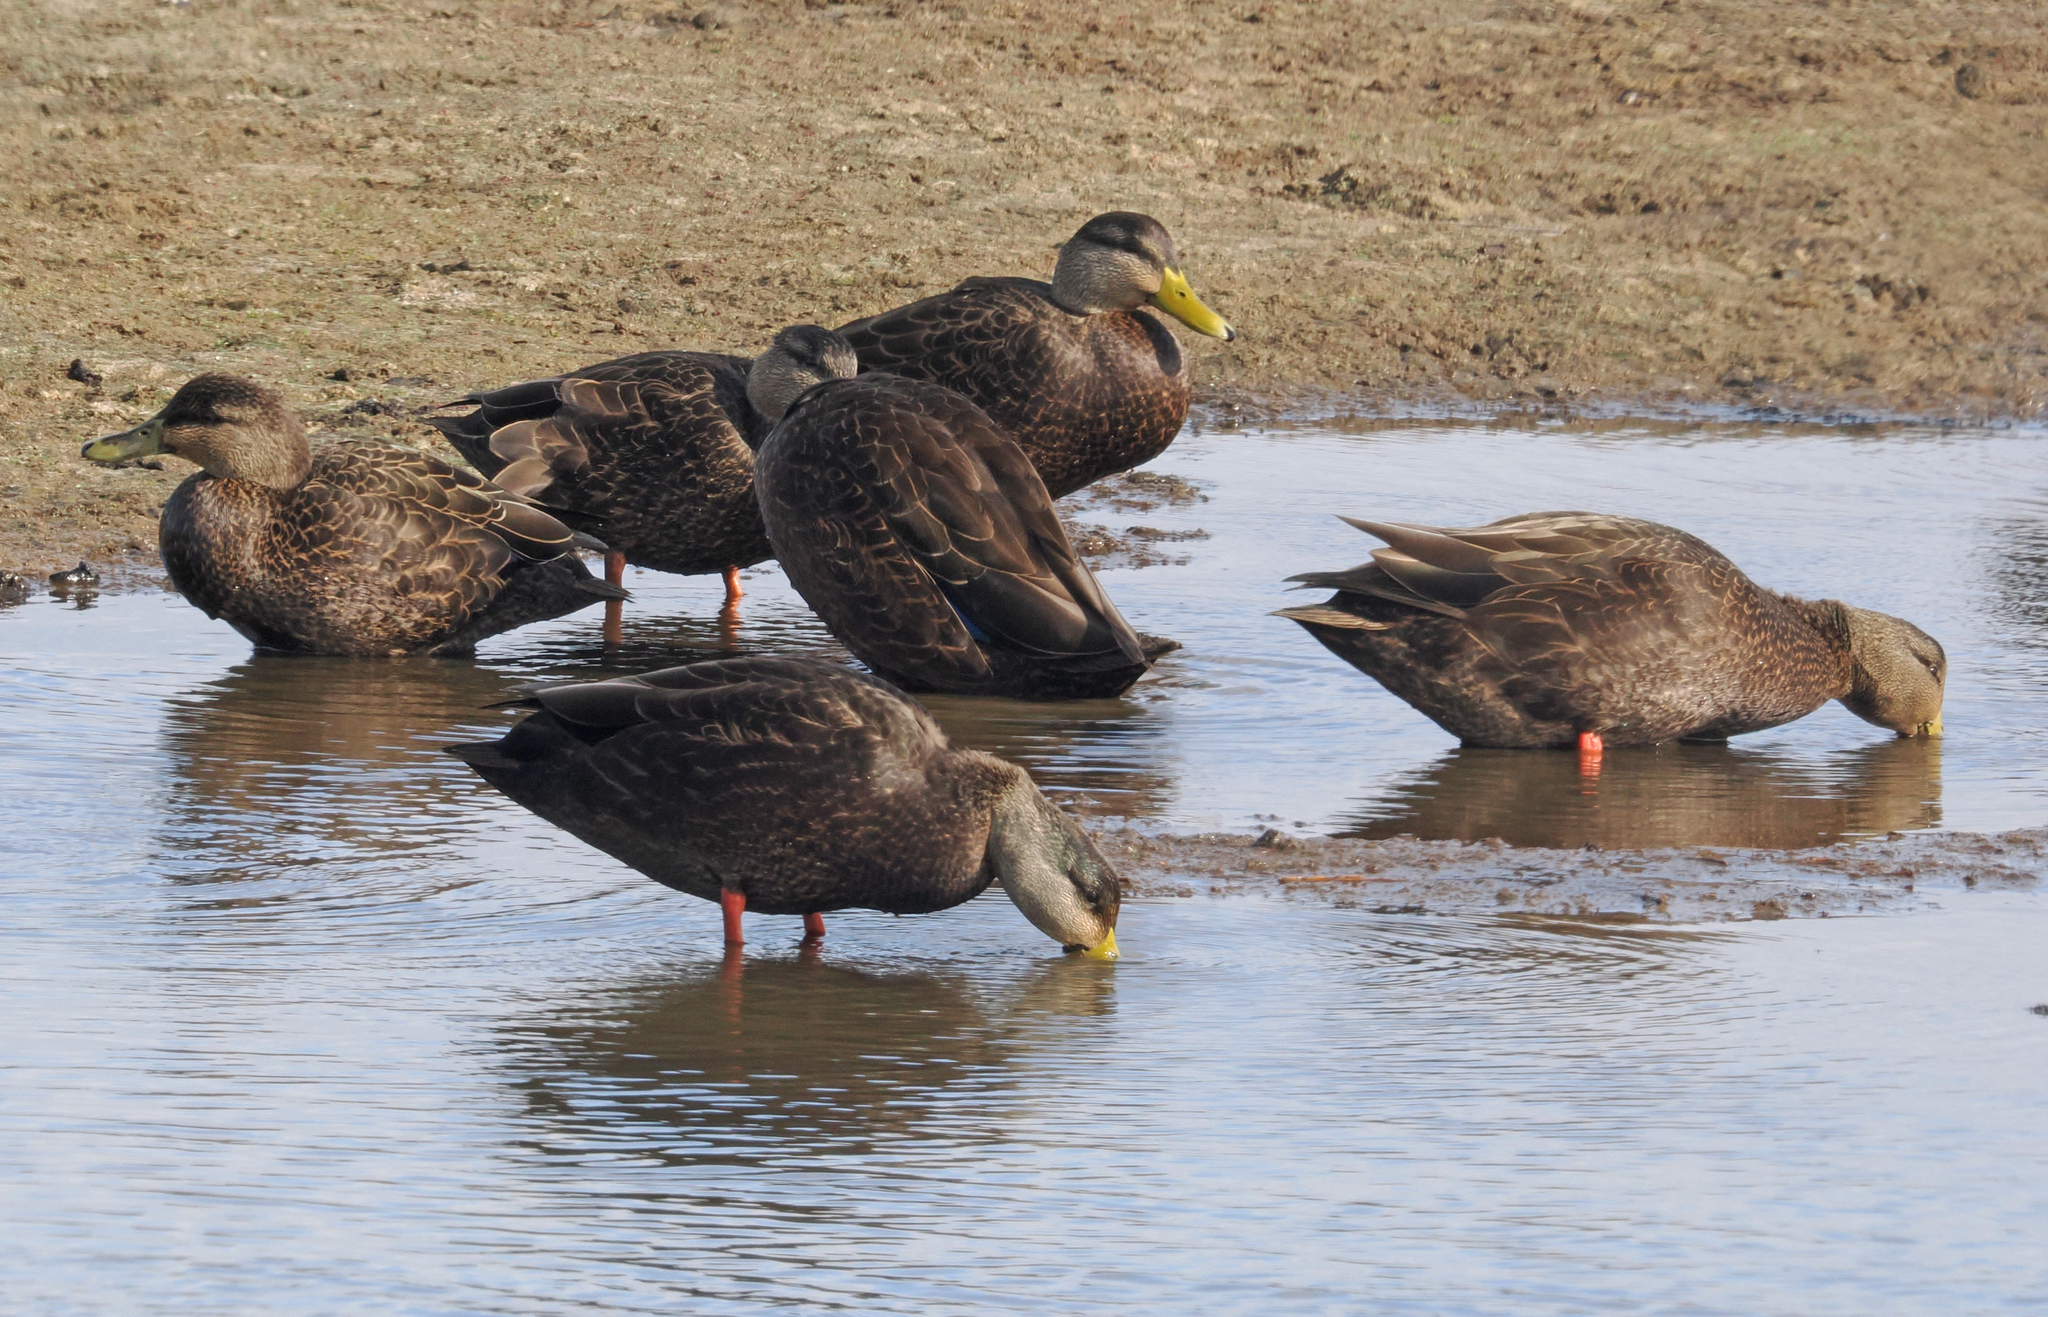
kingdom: Animalia
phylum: Chordata
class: Aves
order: Anseriformes
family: Anatidae
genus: Anas
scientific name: Anas rubripes
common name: American black duck
